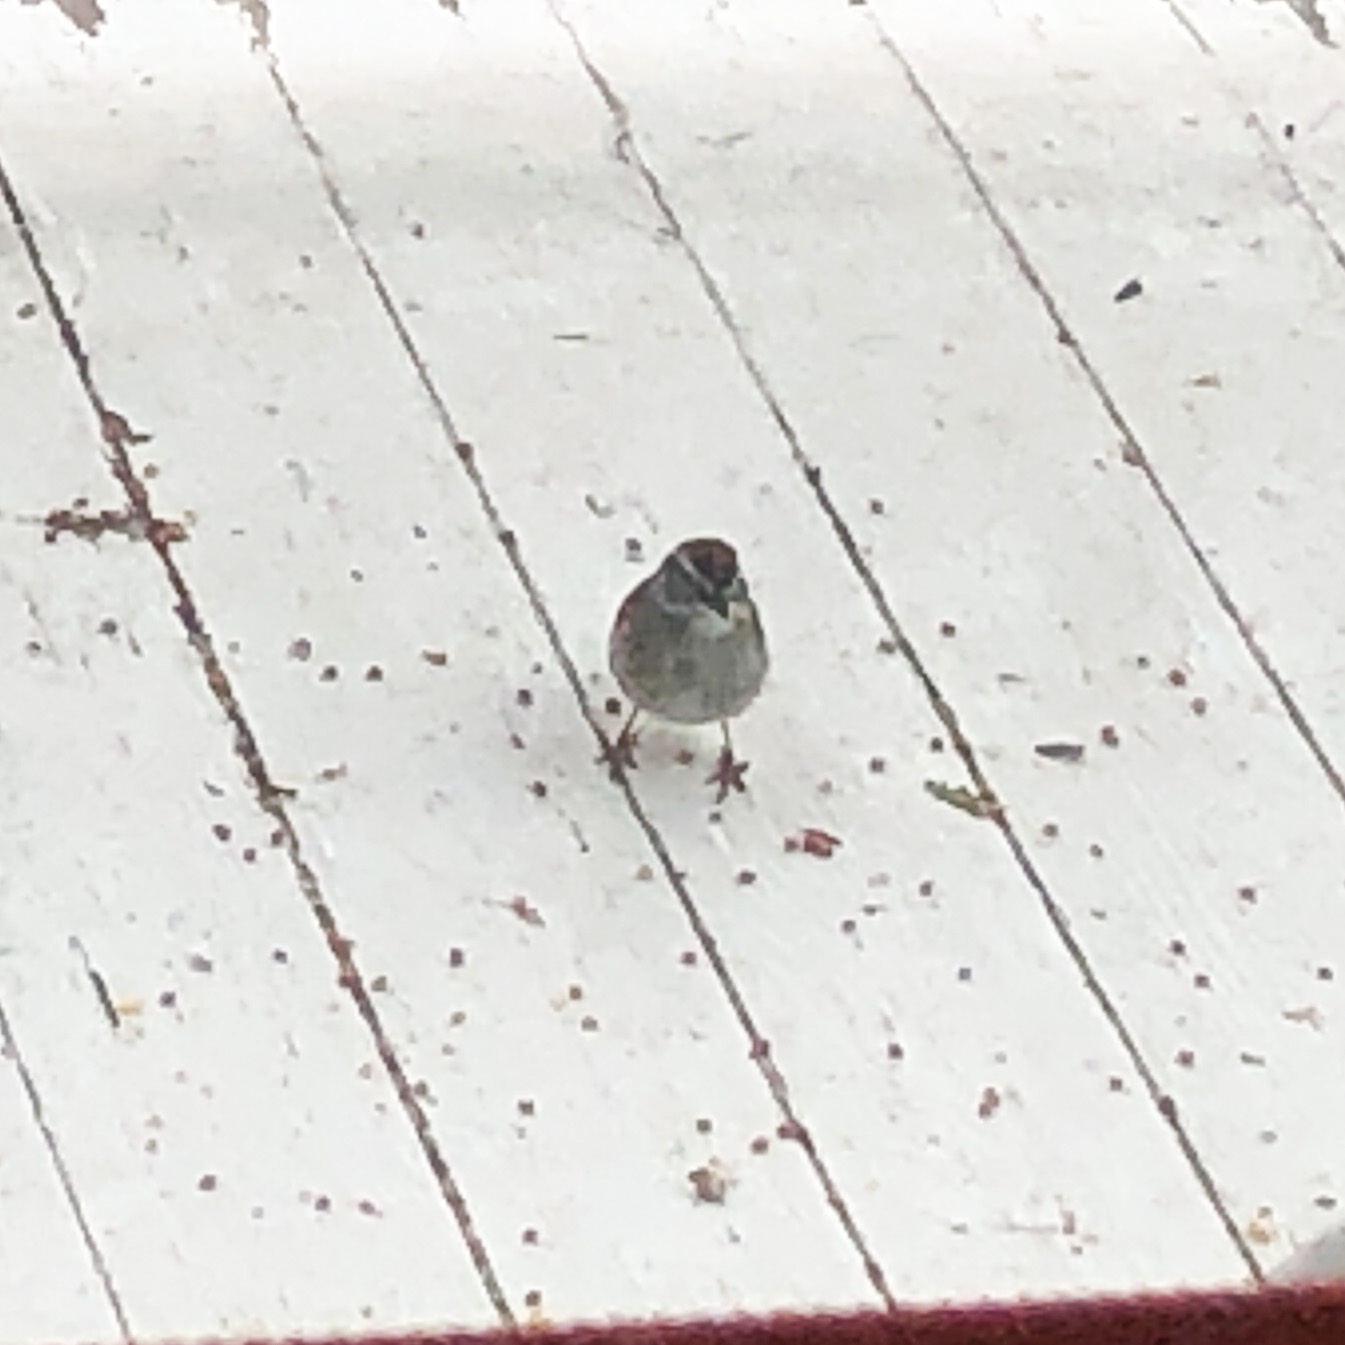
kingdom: Animalia
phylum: Chordata
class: Aves
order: Passeriformes
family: Passerellidae
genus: Spizella
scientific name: Spizella passerina
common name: Chipping sparrow
